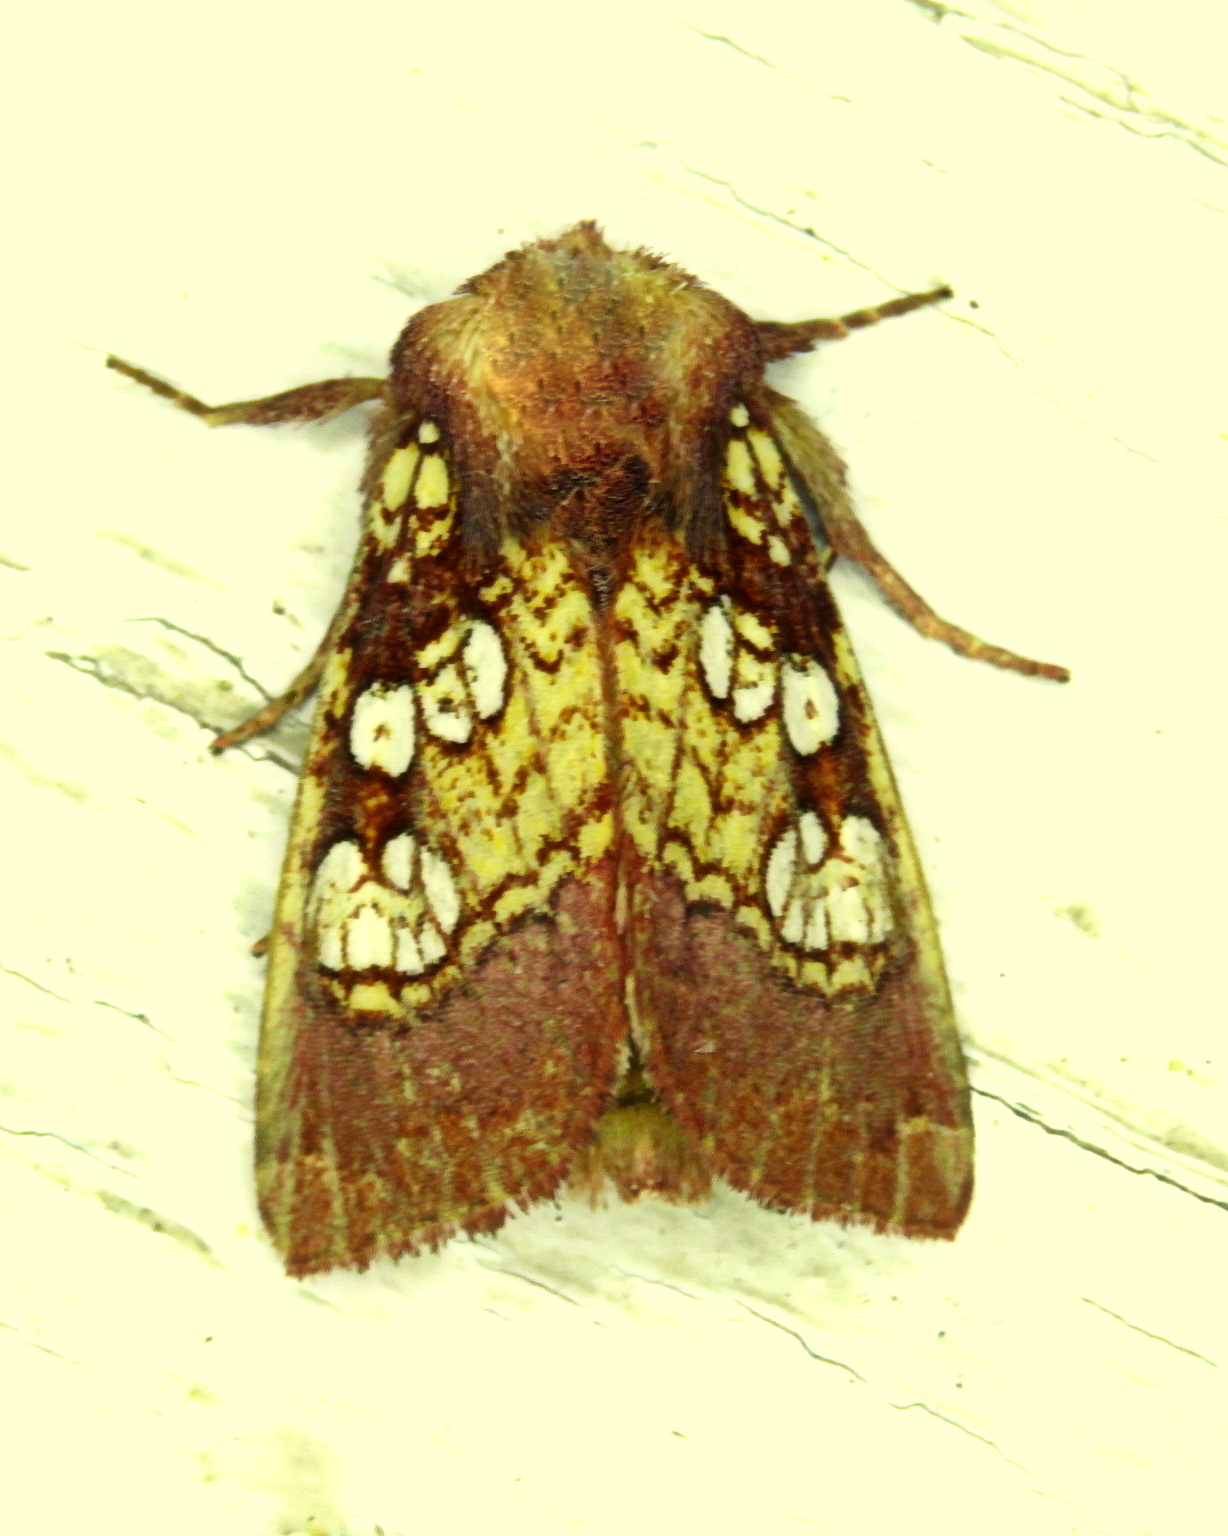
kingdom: Animalia
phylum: Arthropoda
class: Insecta
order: Lepidoptera
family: Noctuidae
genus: Papaipema
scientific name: Papaipema appassionata
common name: Pitcher plant borer moth
